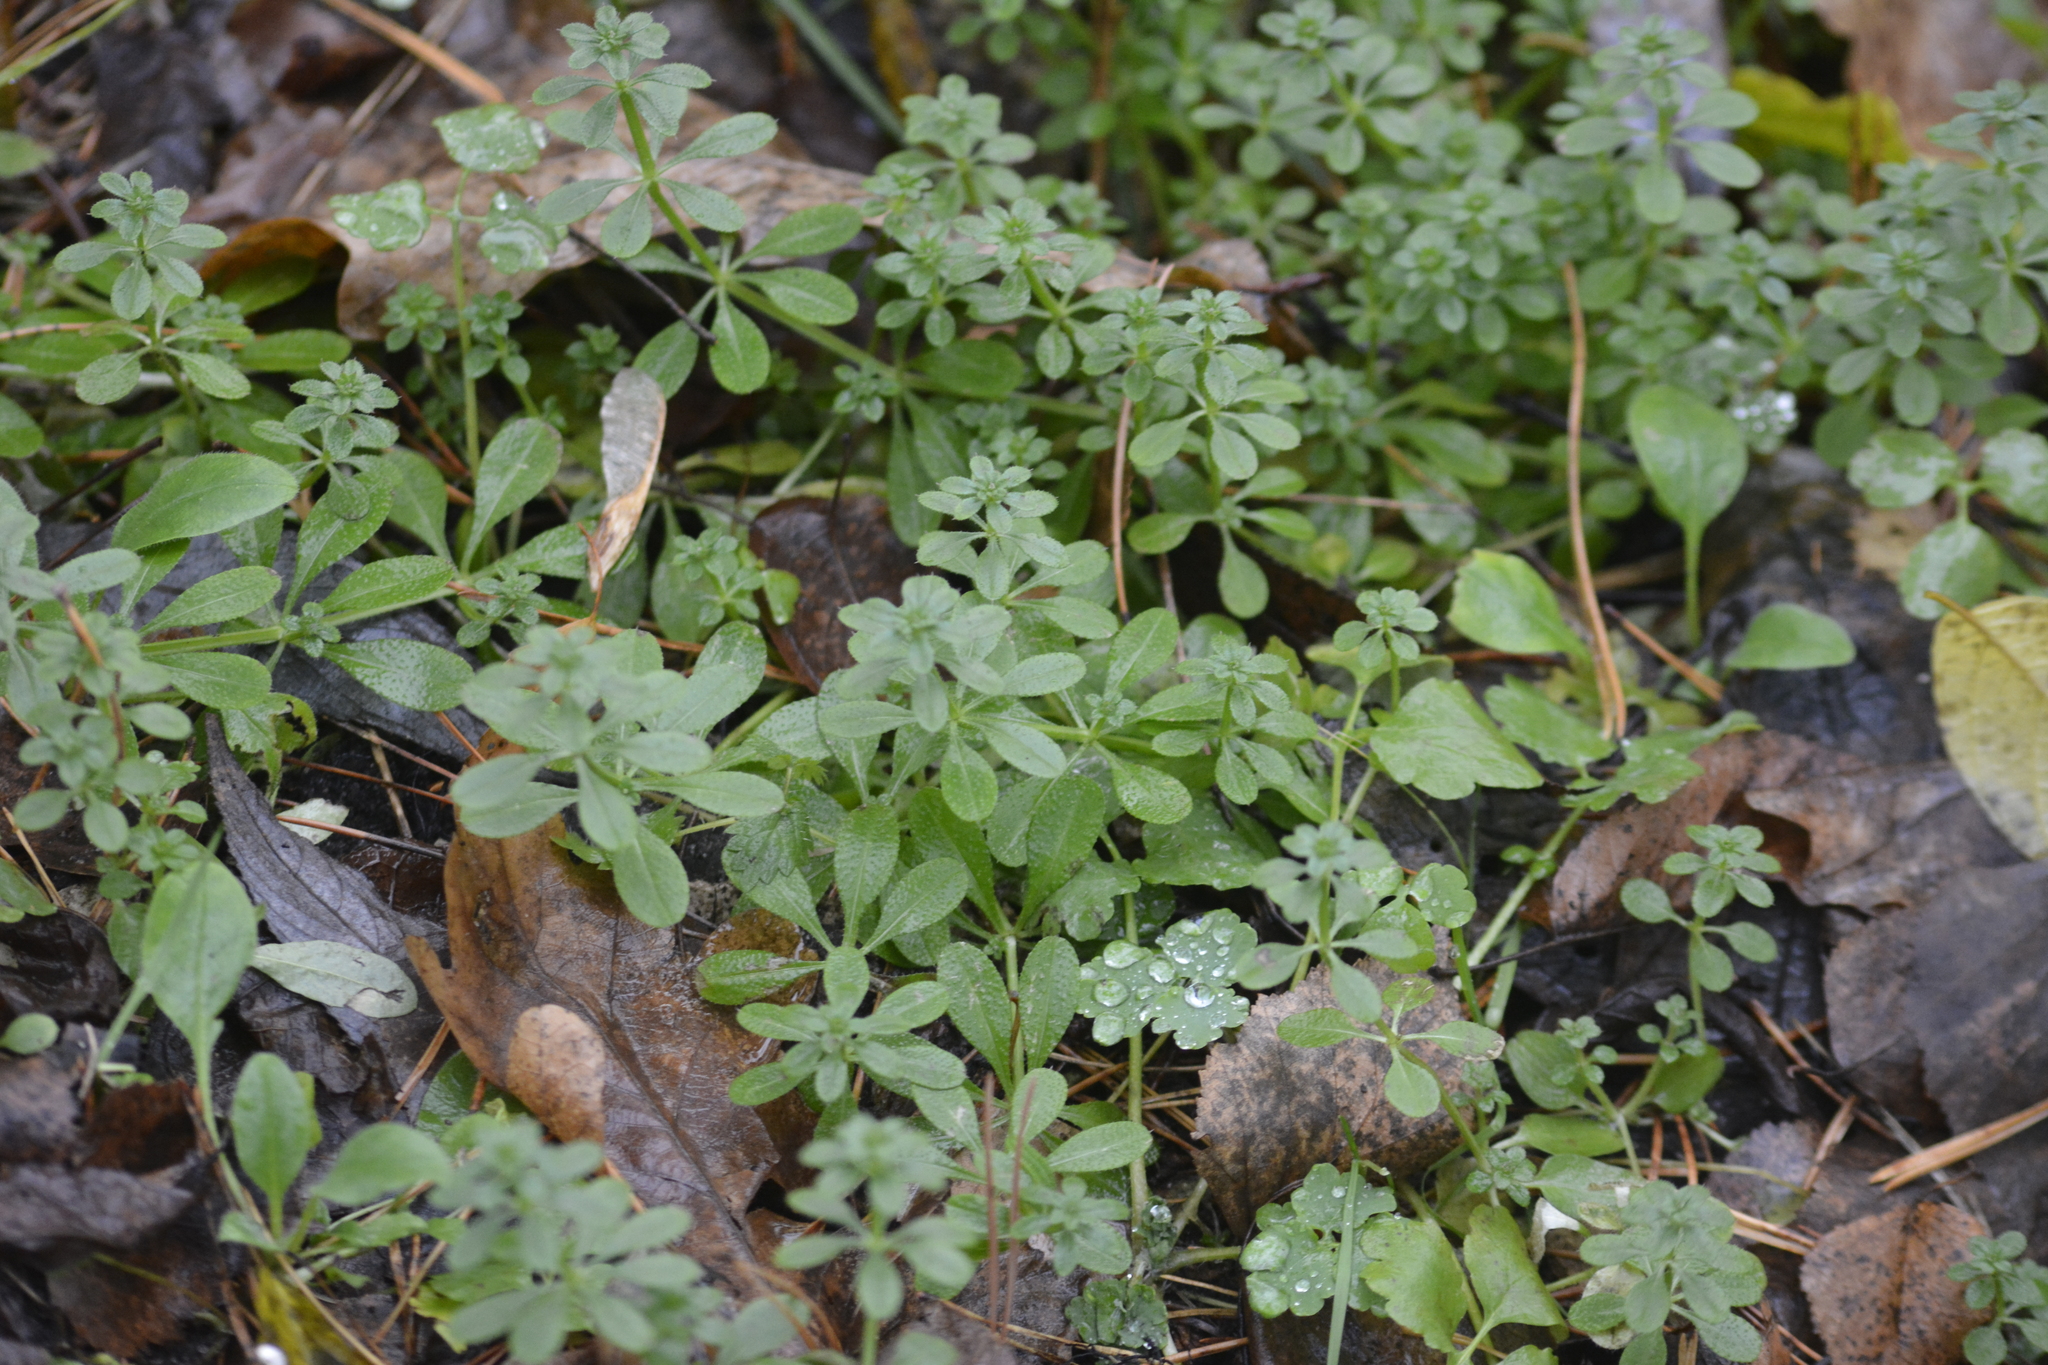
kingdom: Plantae
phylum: Tracheophyta
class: Magnoliopsida
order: Gentianales
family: Rubiaceae
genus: Galium
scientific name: Galium aparine
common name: Cleavers
